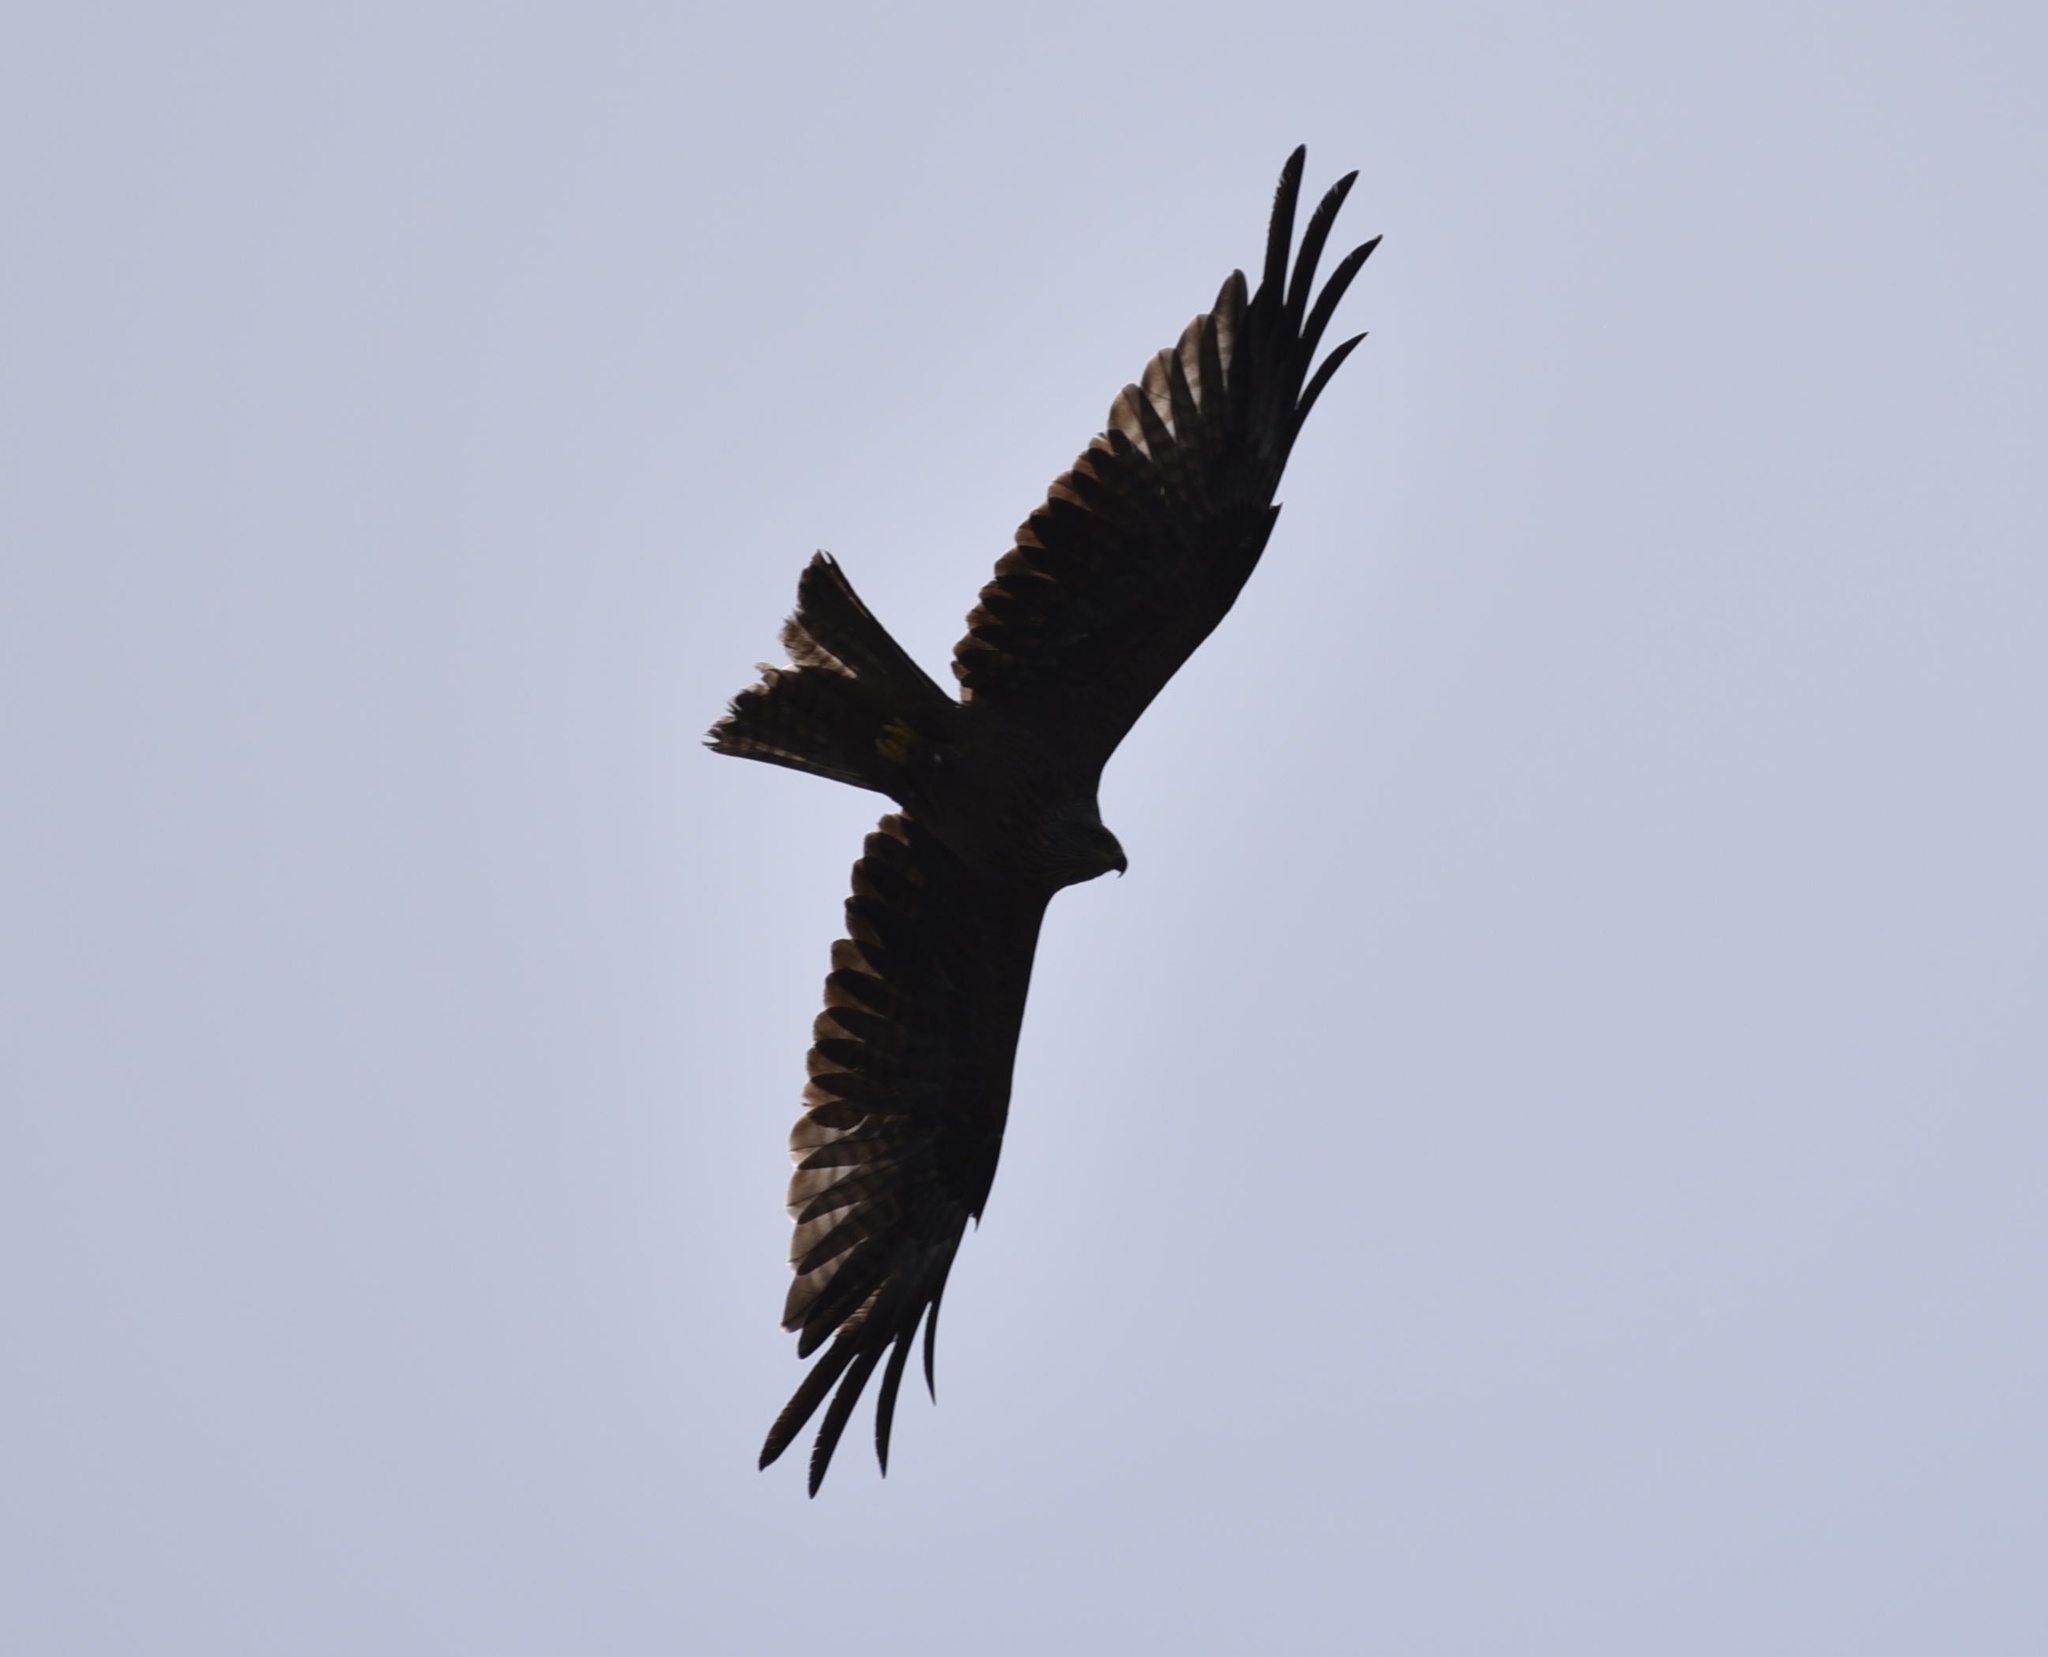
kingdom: Animalia
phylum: Chordata
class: Aves
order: Accipitriformes
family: Accipitridae
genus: Milvus
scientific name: Milvus migrans
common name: Black kite
